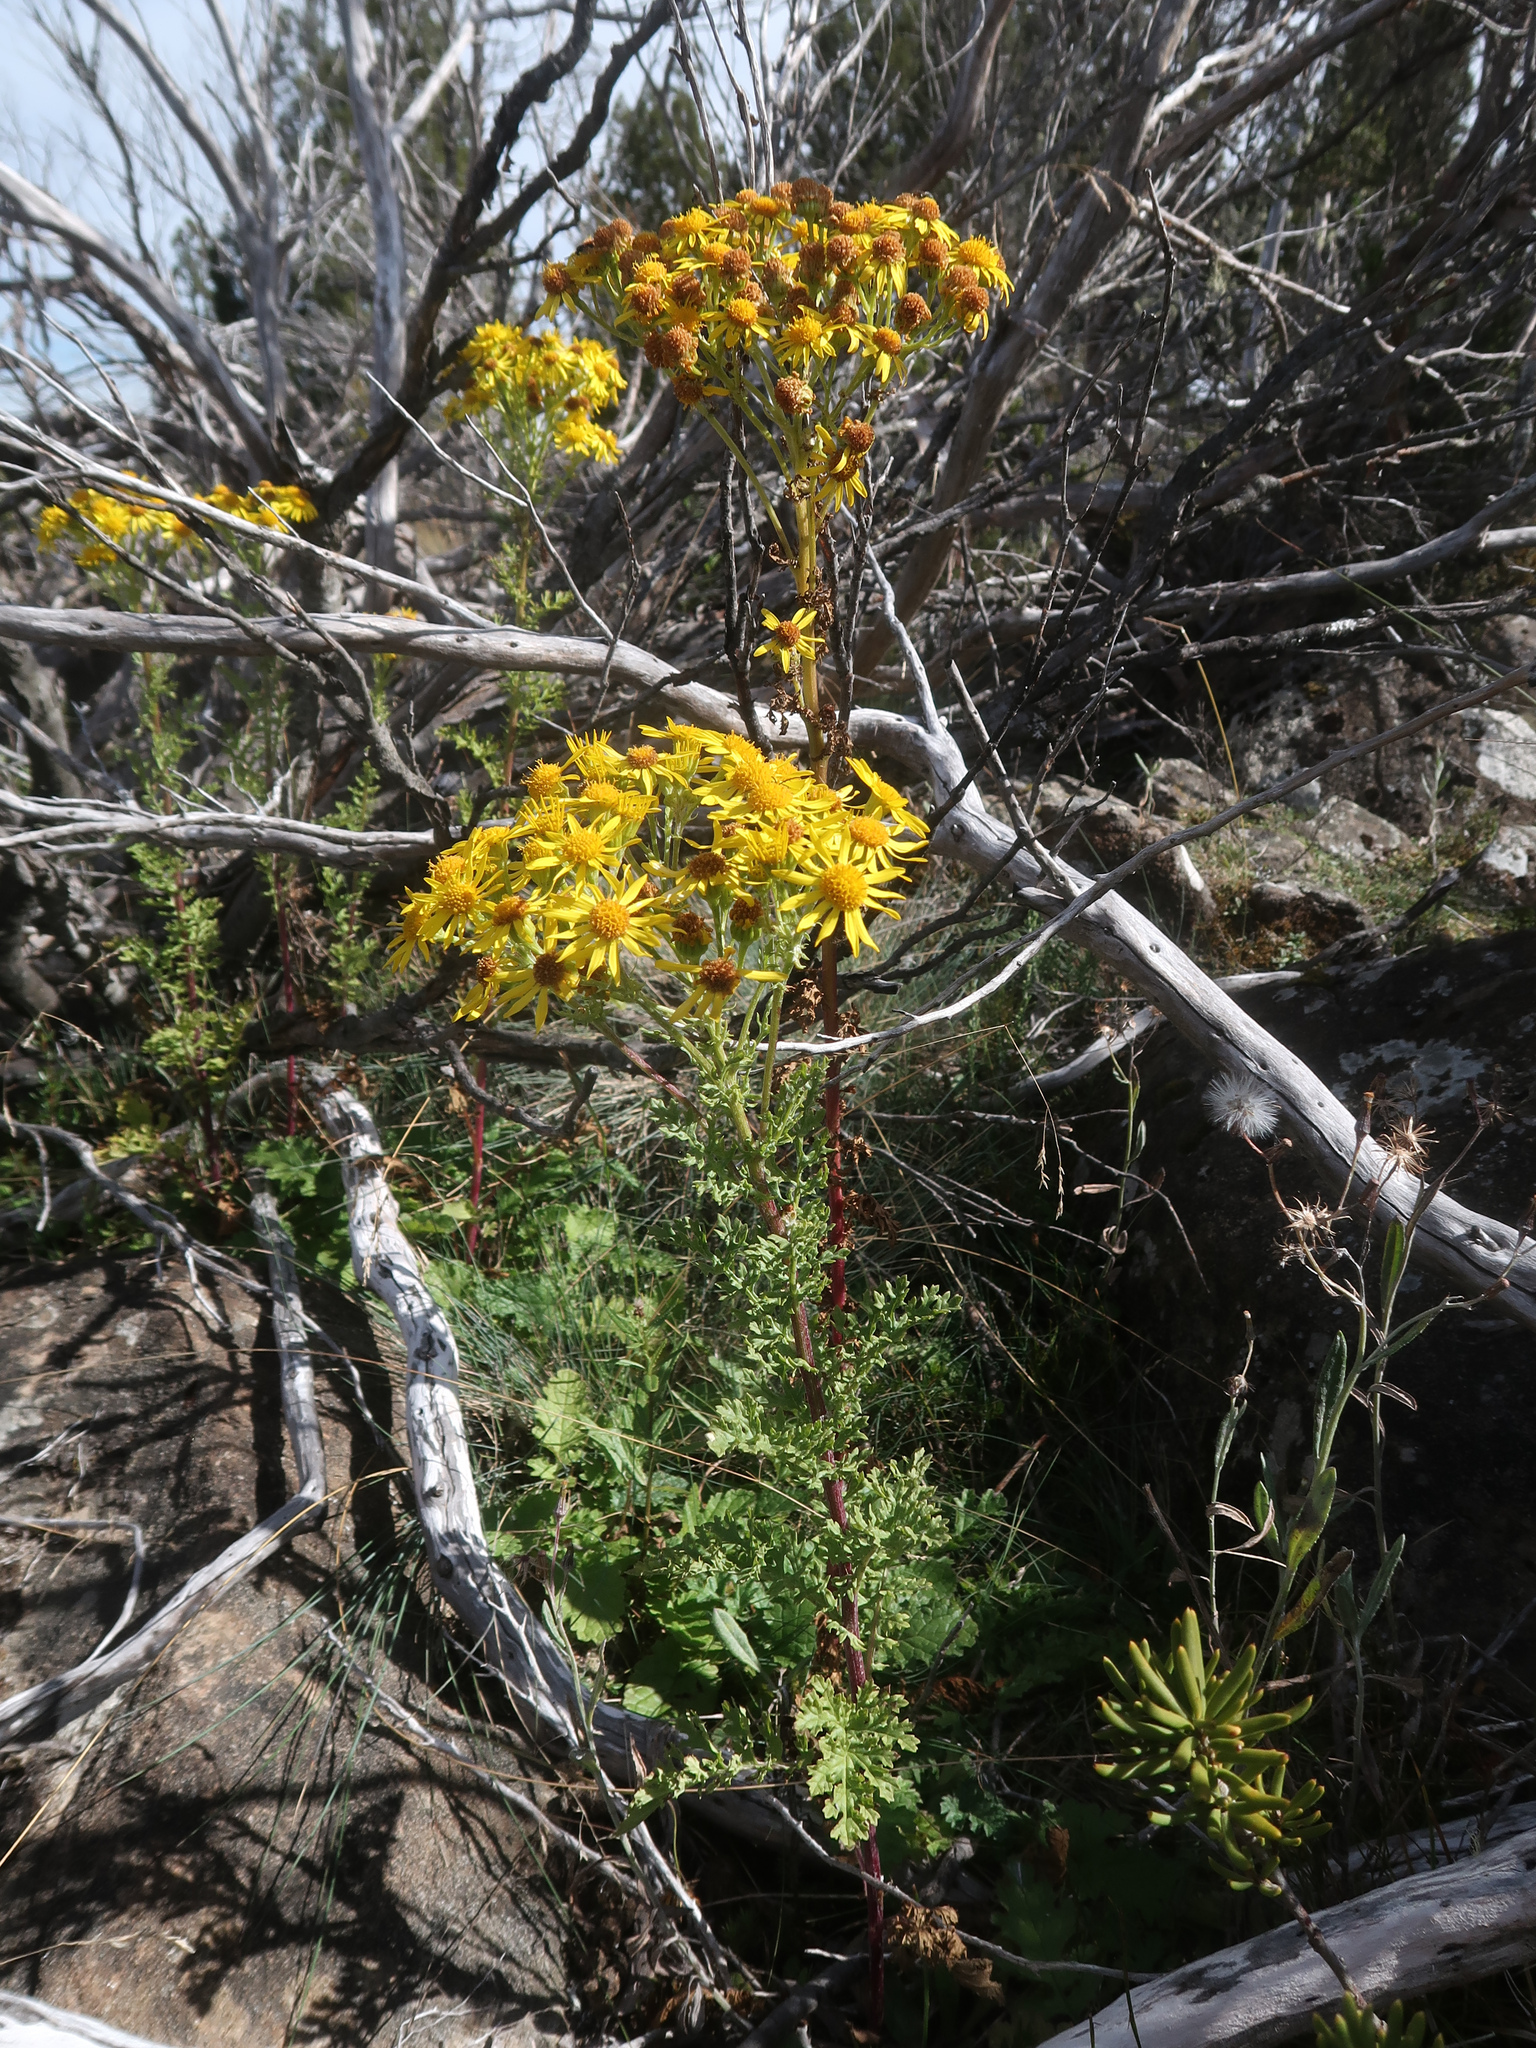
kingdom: Plantae
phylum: Tracheophyta
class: Magnoliopsida
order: Asterales
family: Asteraceae
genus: Jacobaea
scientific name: Jacobaea vulgaris
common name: Stinking willie
